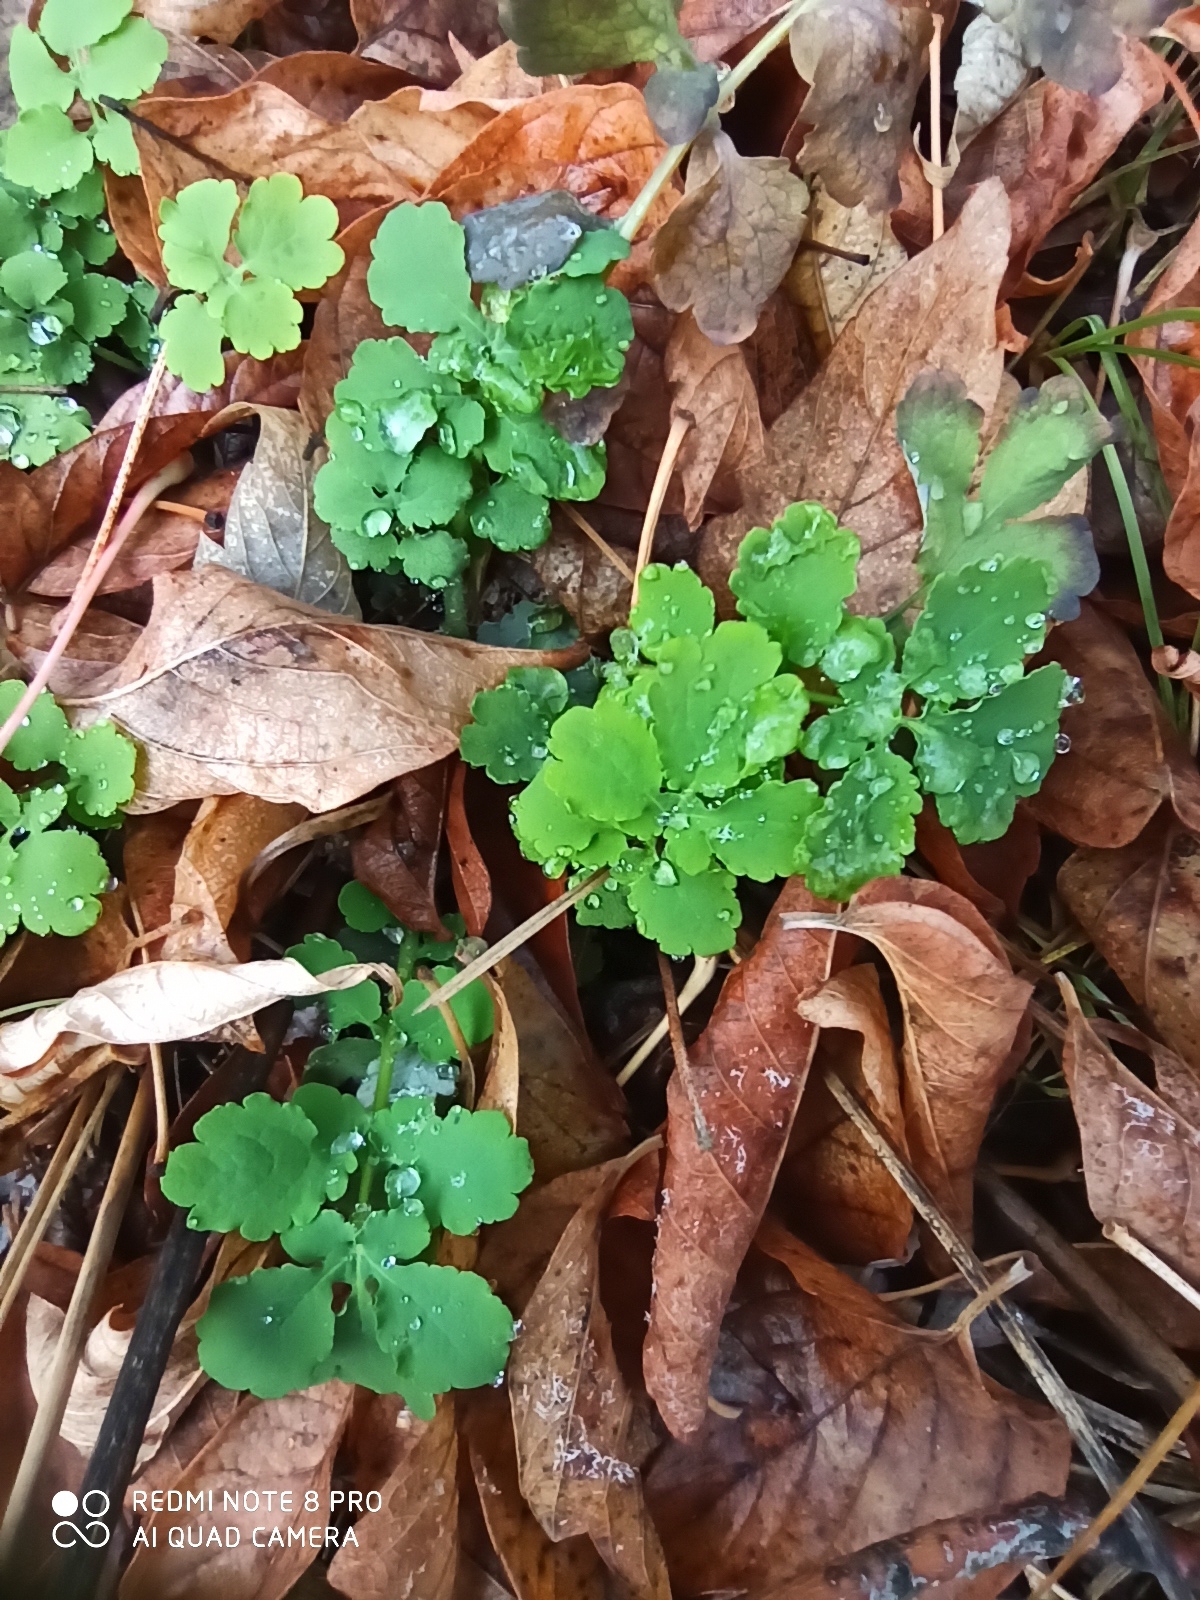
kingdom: Plantae
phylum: Tracheophyta
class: Magnoliopsida
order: Ranunculales
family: Papaveraceae
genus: Chelidonium
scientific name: Chelidonium majus
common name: Greater celandine
